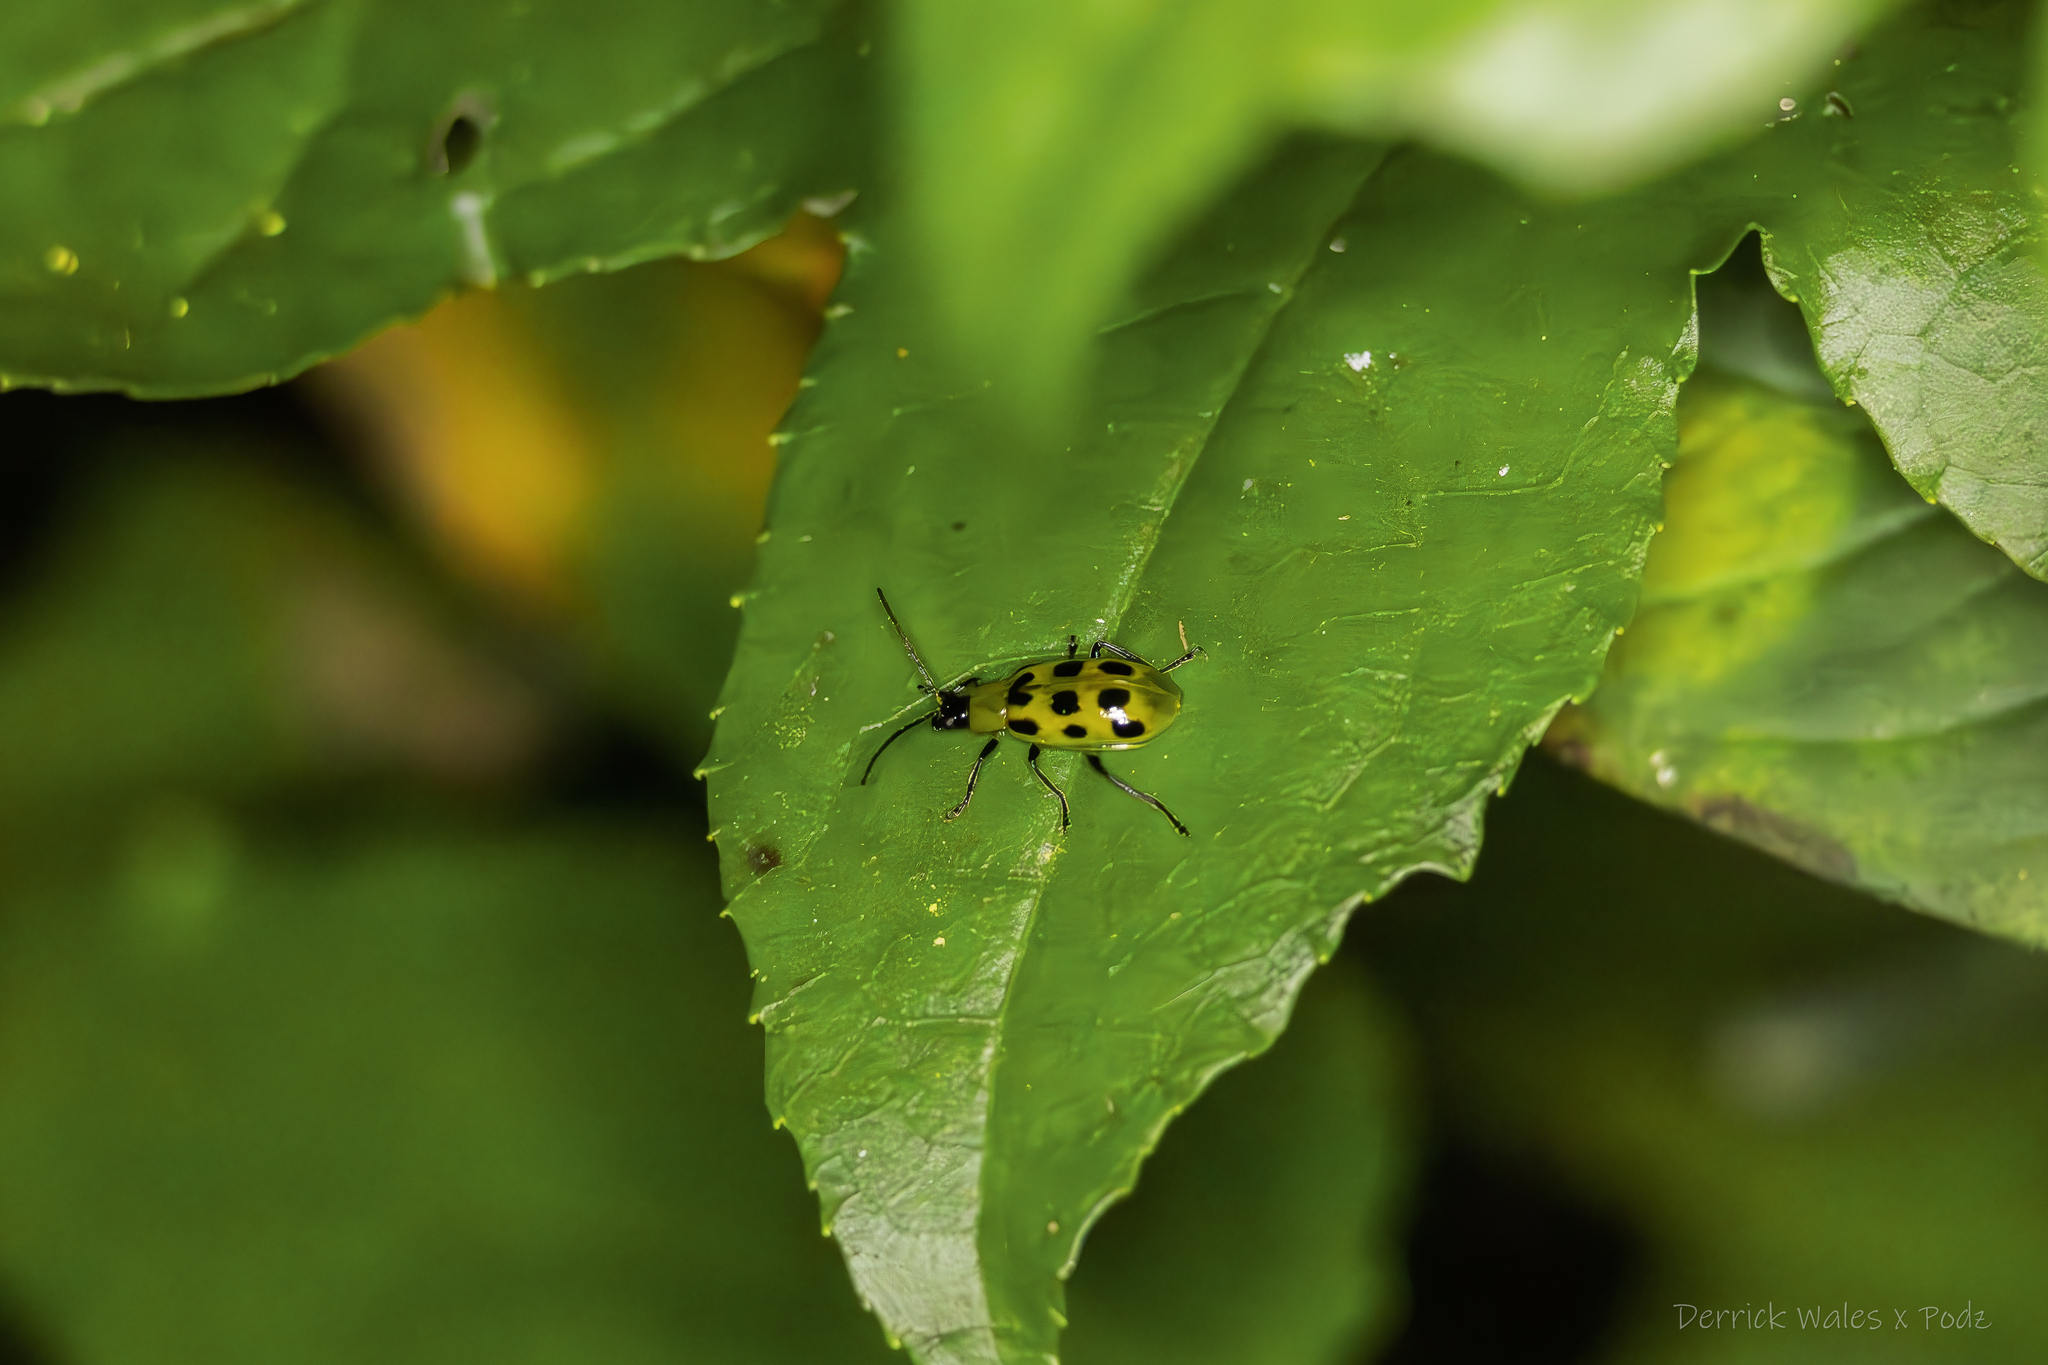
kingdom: Animalia
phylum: Arthropoda
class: Insecta
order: Coleoptera
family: Chrysomelidae
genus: Diabrotica
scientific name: Diabrotica undecimpunctata
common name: Spotted cucumber beetle
